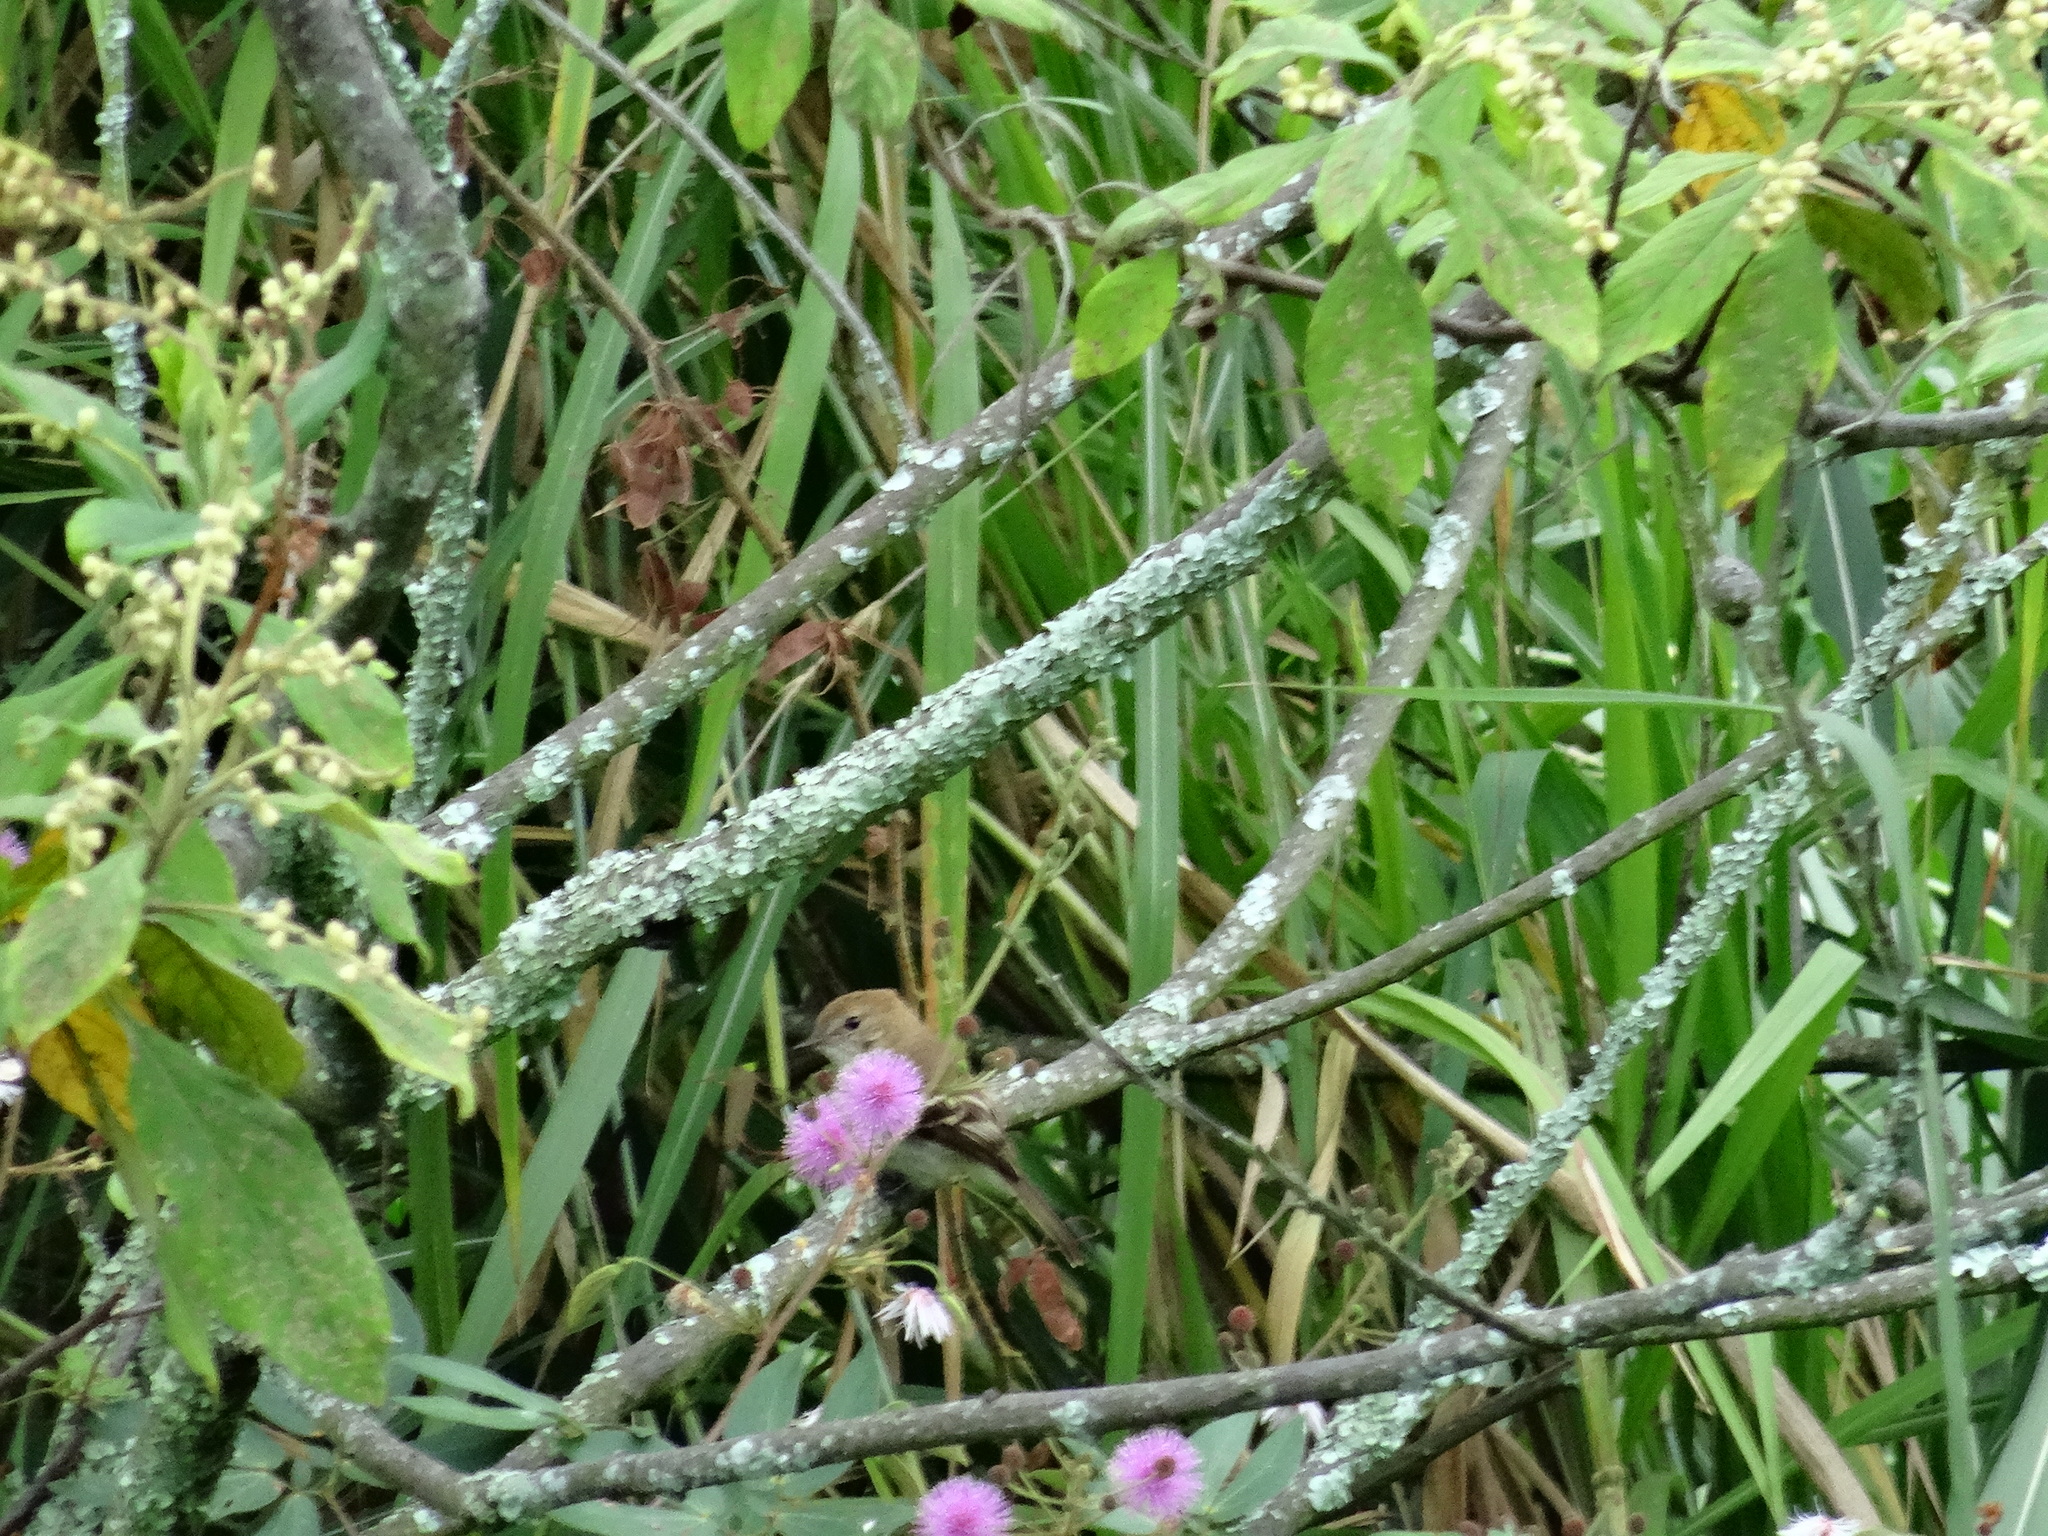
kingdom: Animalia
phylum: Chordata
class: Aves
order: Passeriformes
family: Tyrannidae
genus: Myiophobus
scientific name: Myiophobus fasciatus
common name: Bran-colored flycatcher
